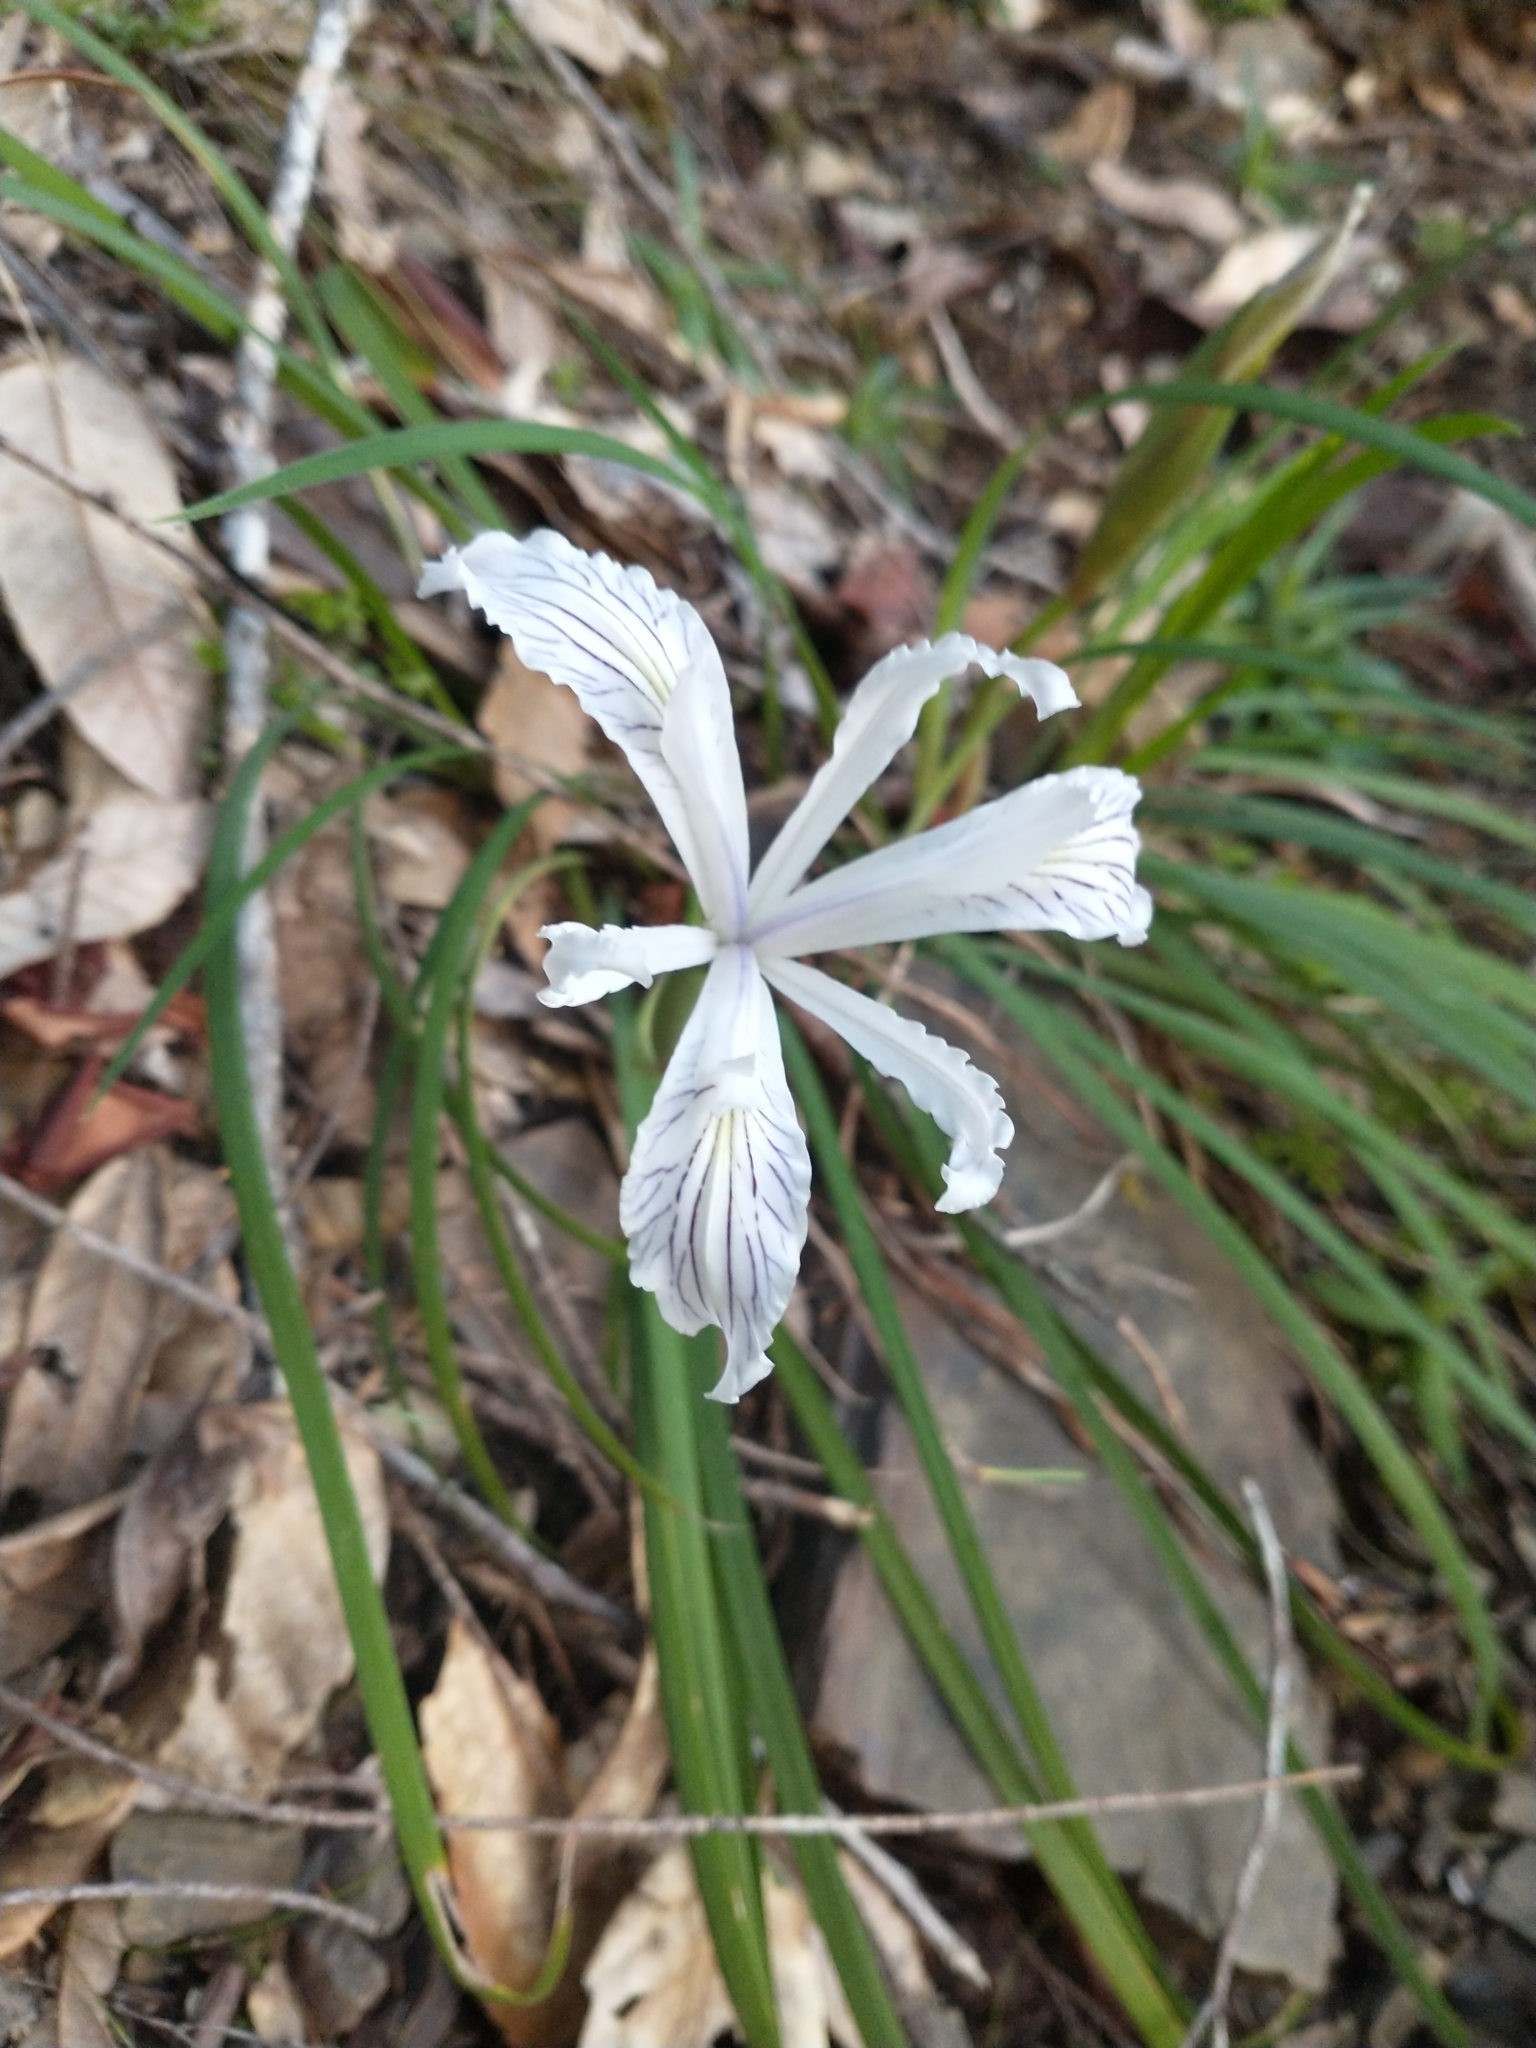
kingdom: Plantae
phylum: Tracheophyta
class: Liliopsida
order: Asparagales
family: Iridaceae
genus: Iris
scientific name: Iris tenuissima
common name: Long-tube iris
